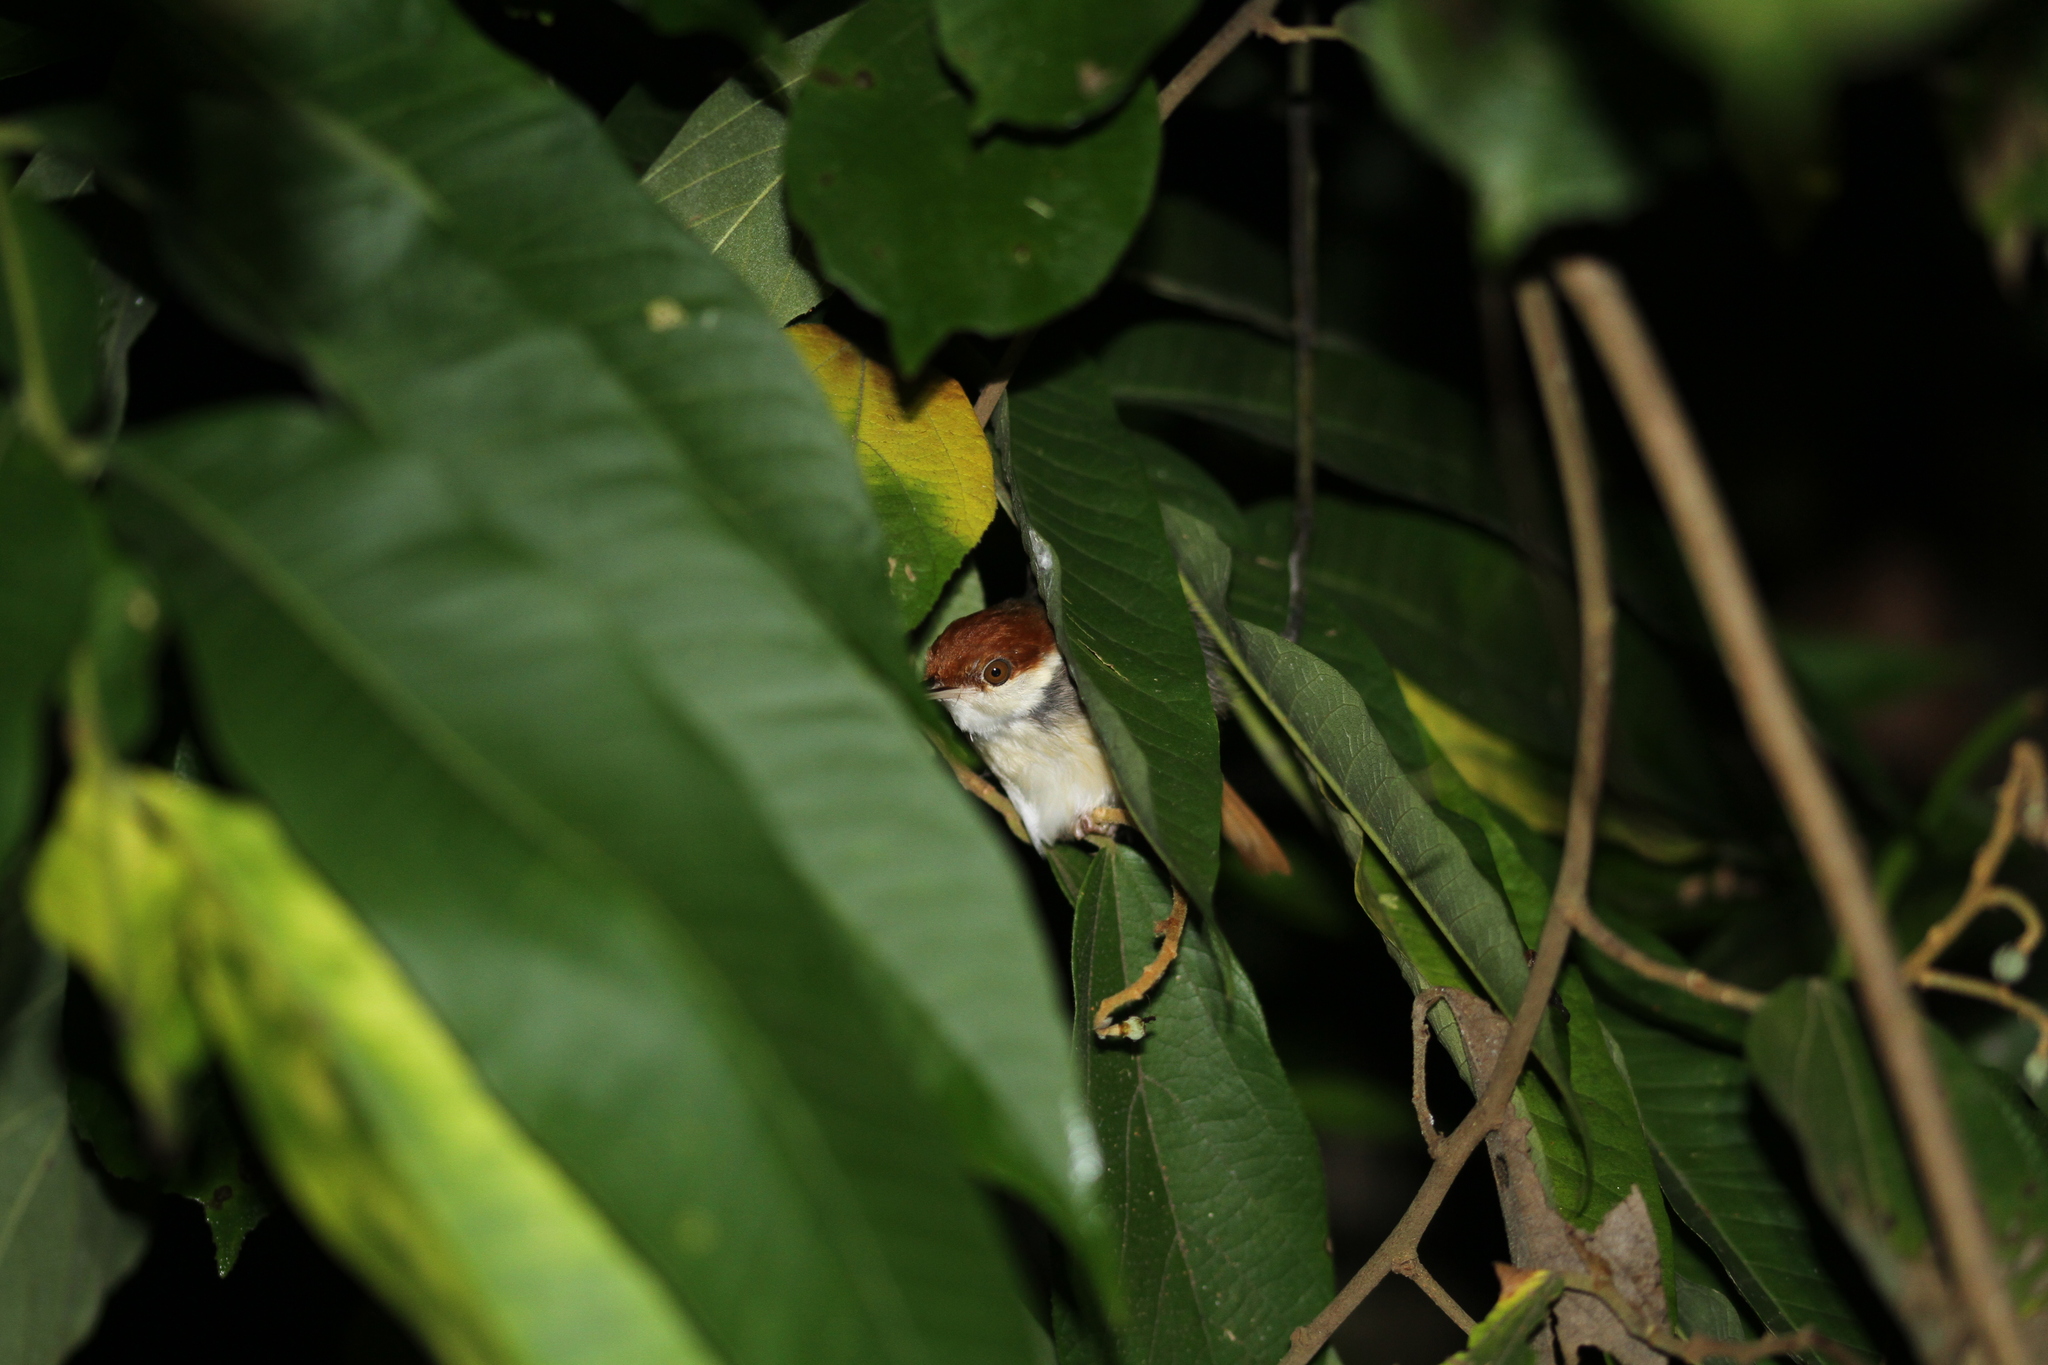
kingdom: Animalia
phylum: Chordata
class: Aves
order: Passeriformes
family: Cisticolidae
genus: Orthotomus
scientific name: Orthotomus atrogularis
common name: Dark-necked tailorbird
